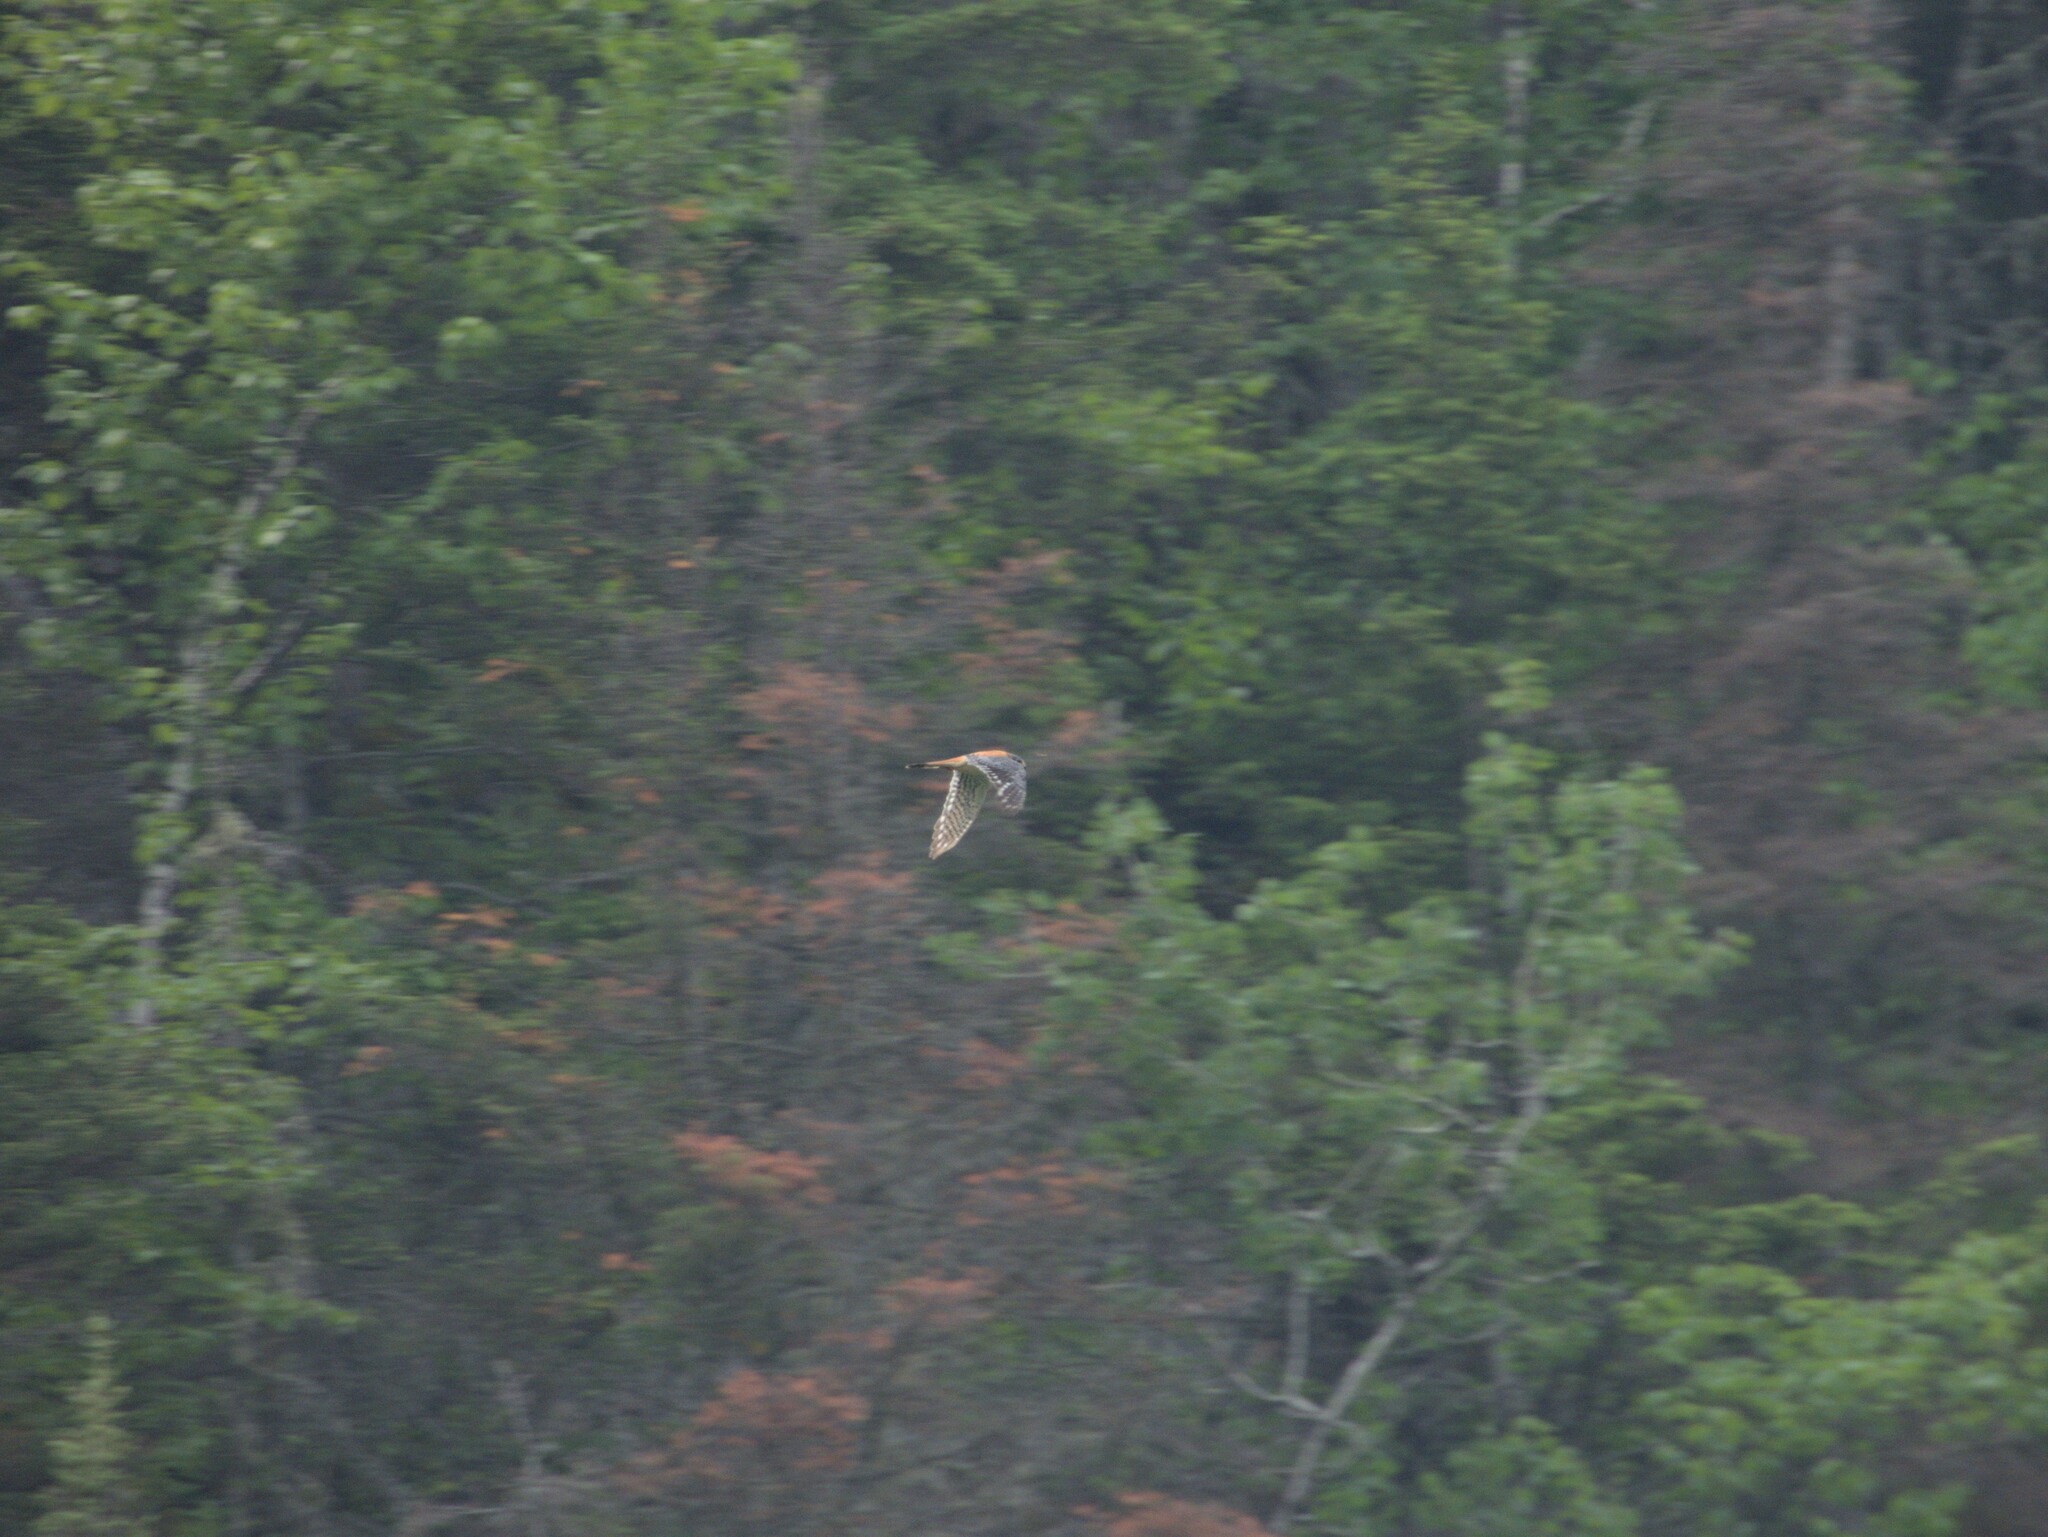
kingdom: Animalia
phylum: Chordata
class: Aves
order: Falconiformes
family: Falconidae
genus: Falco
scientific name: Falco sparverius
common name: American kestrel
